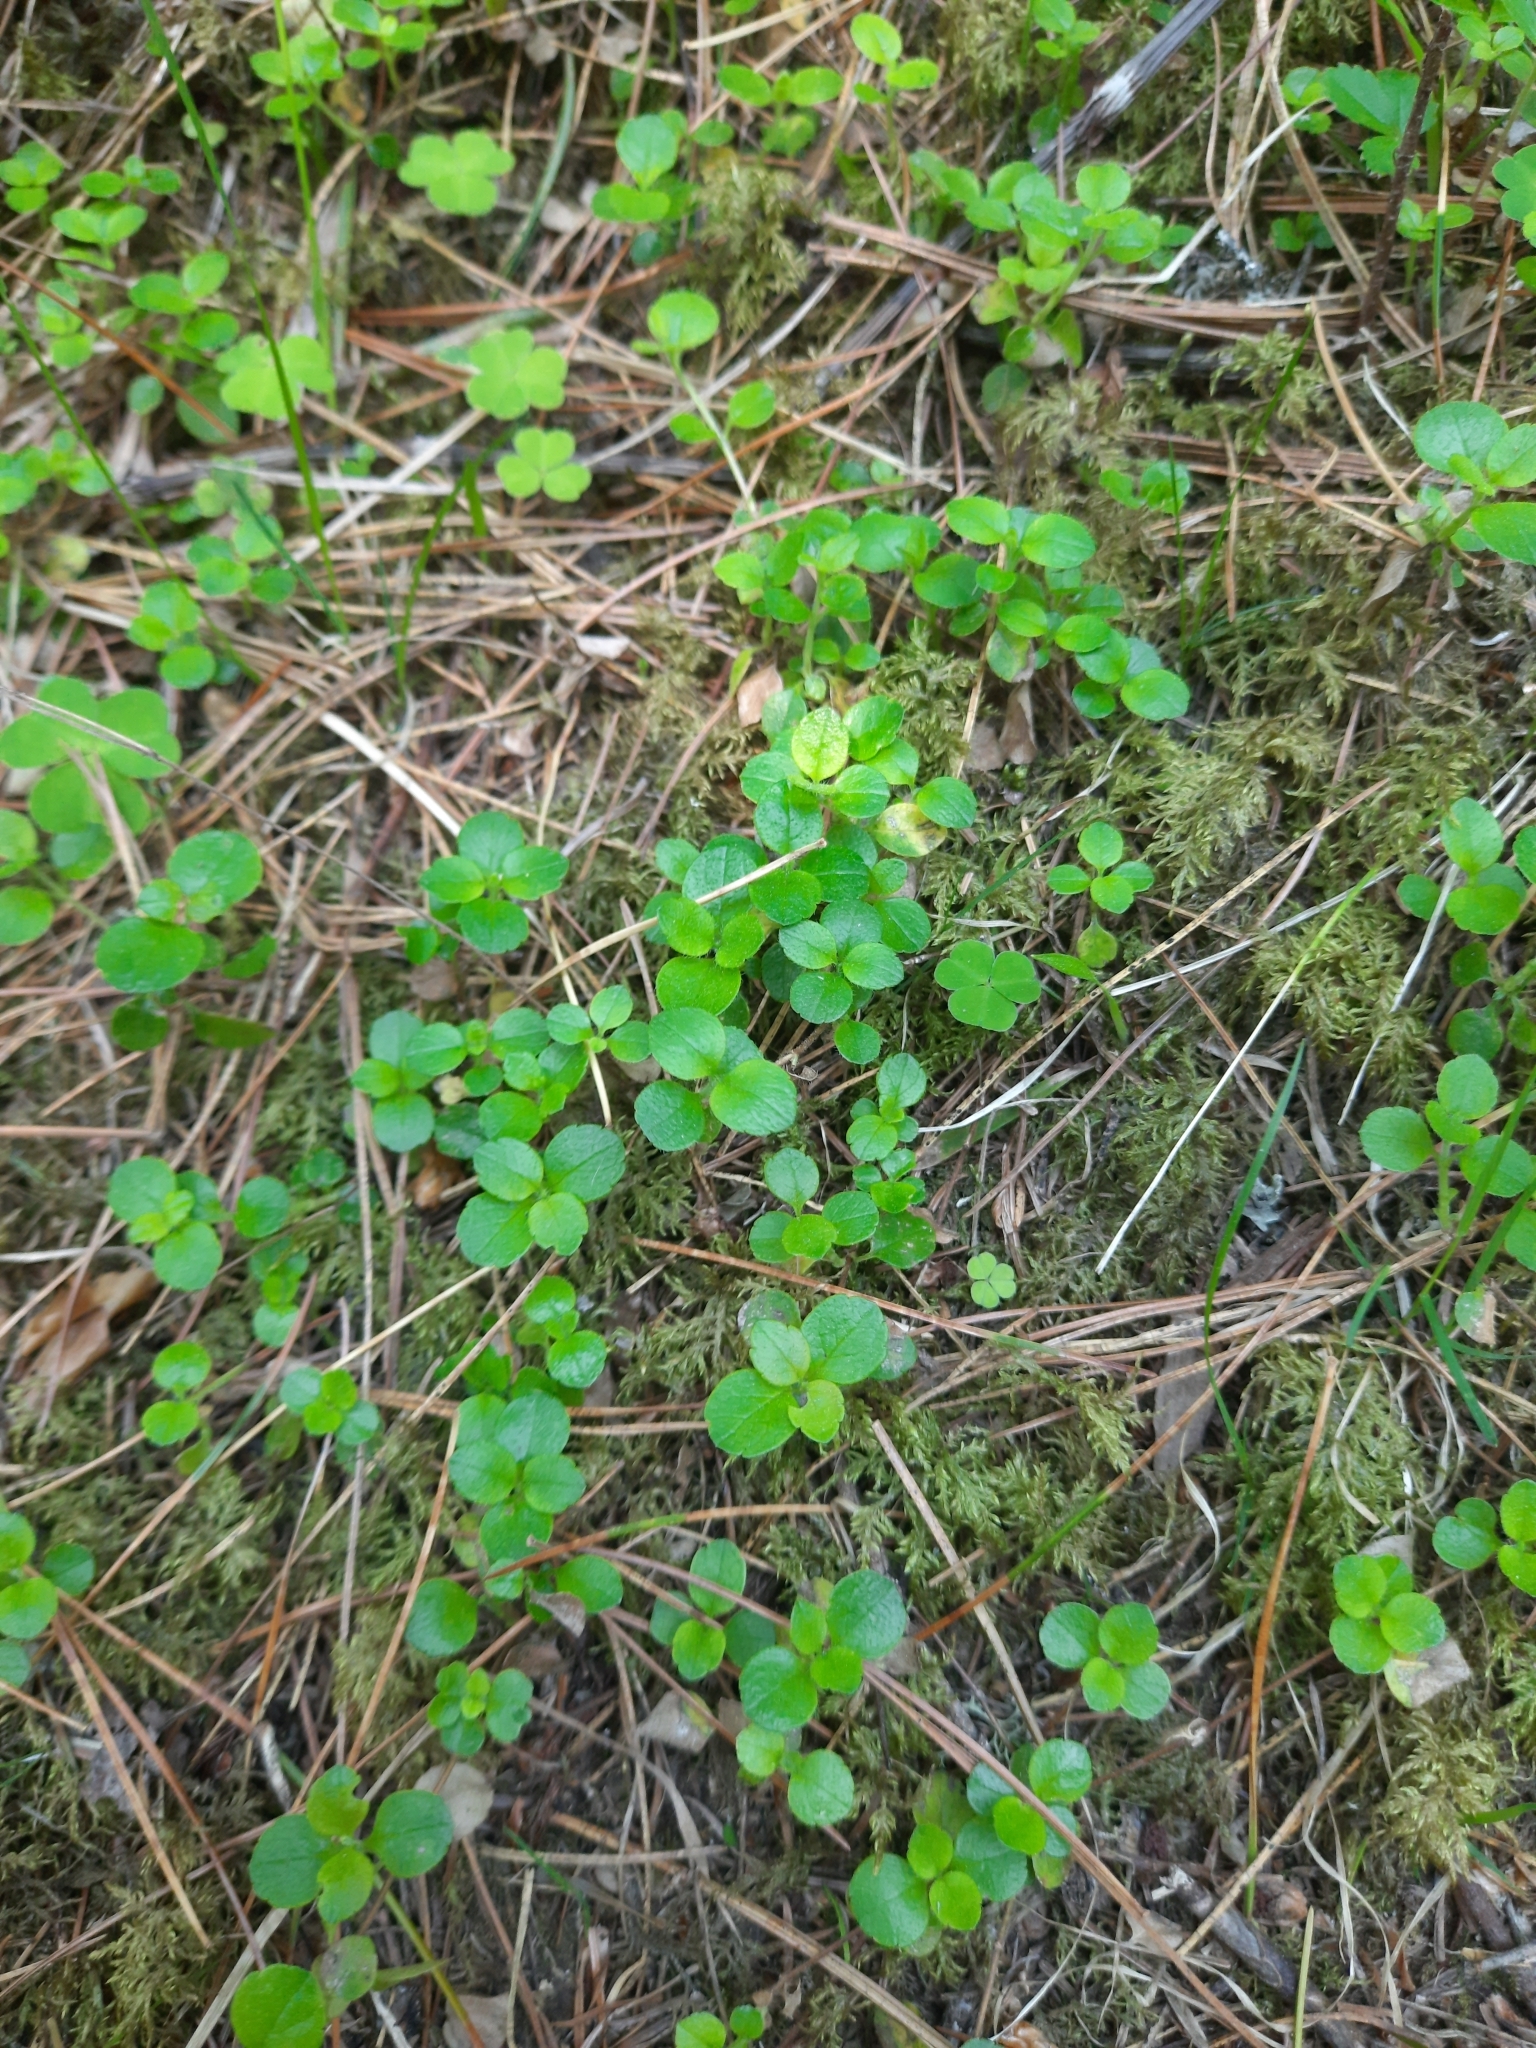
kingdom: Plantae
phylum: Tracheophyta
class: Magnoliopsida
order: Dipsacales
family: Caprifoliaceae
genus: Linnaea
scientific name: Linnaea borealis
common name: Twinflower
